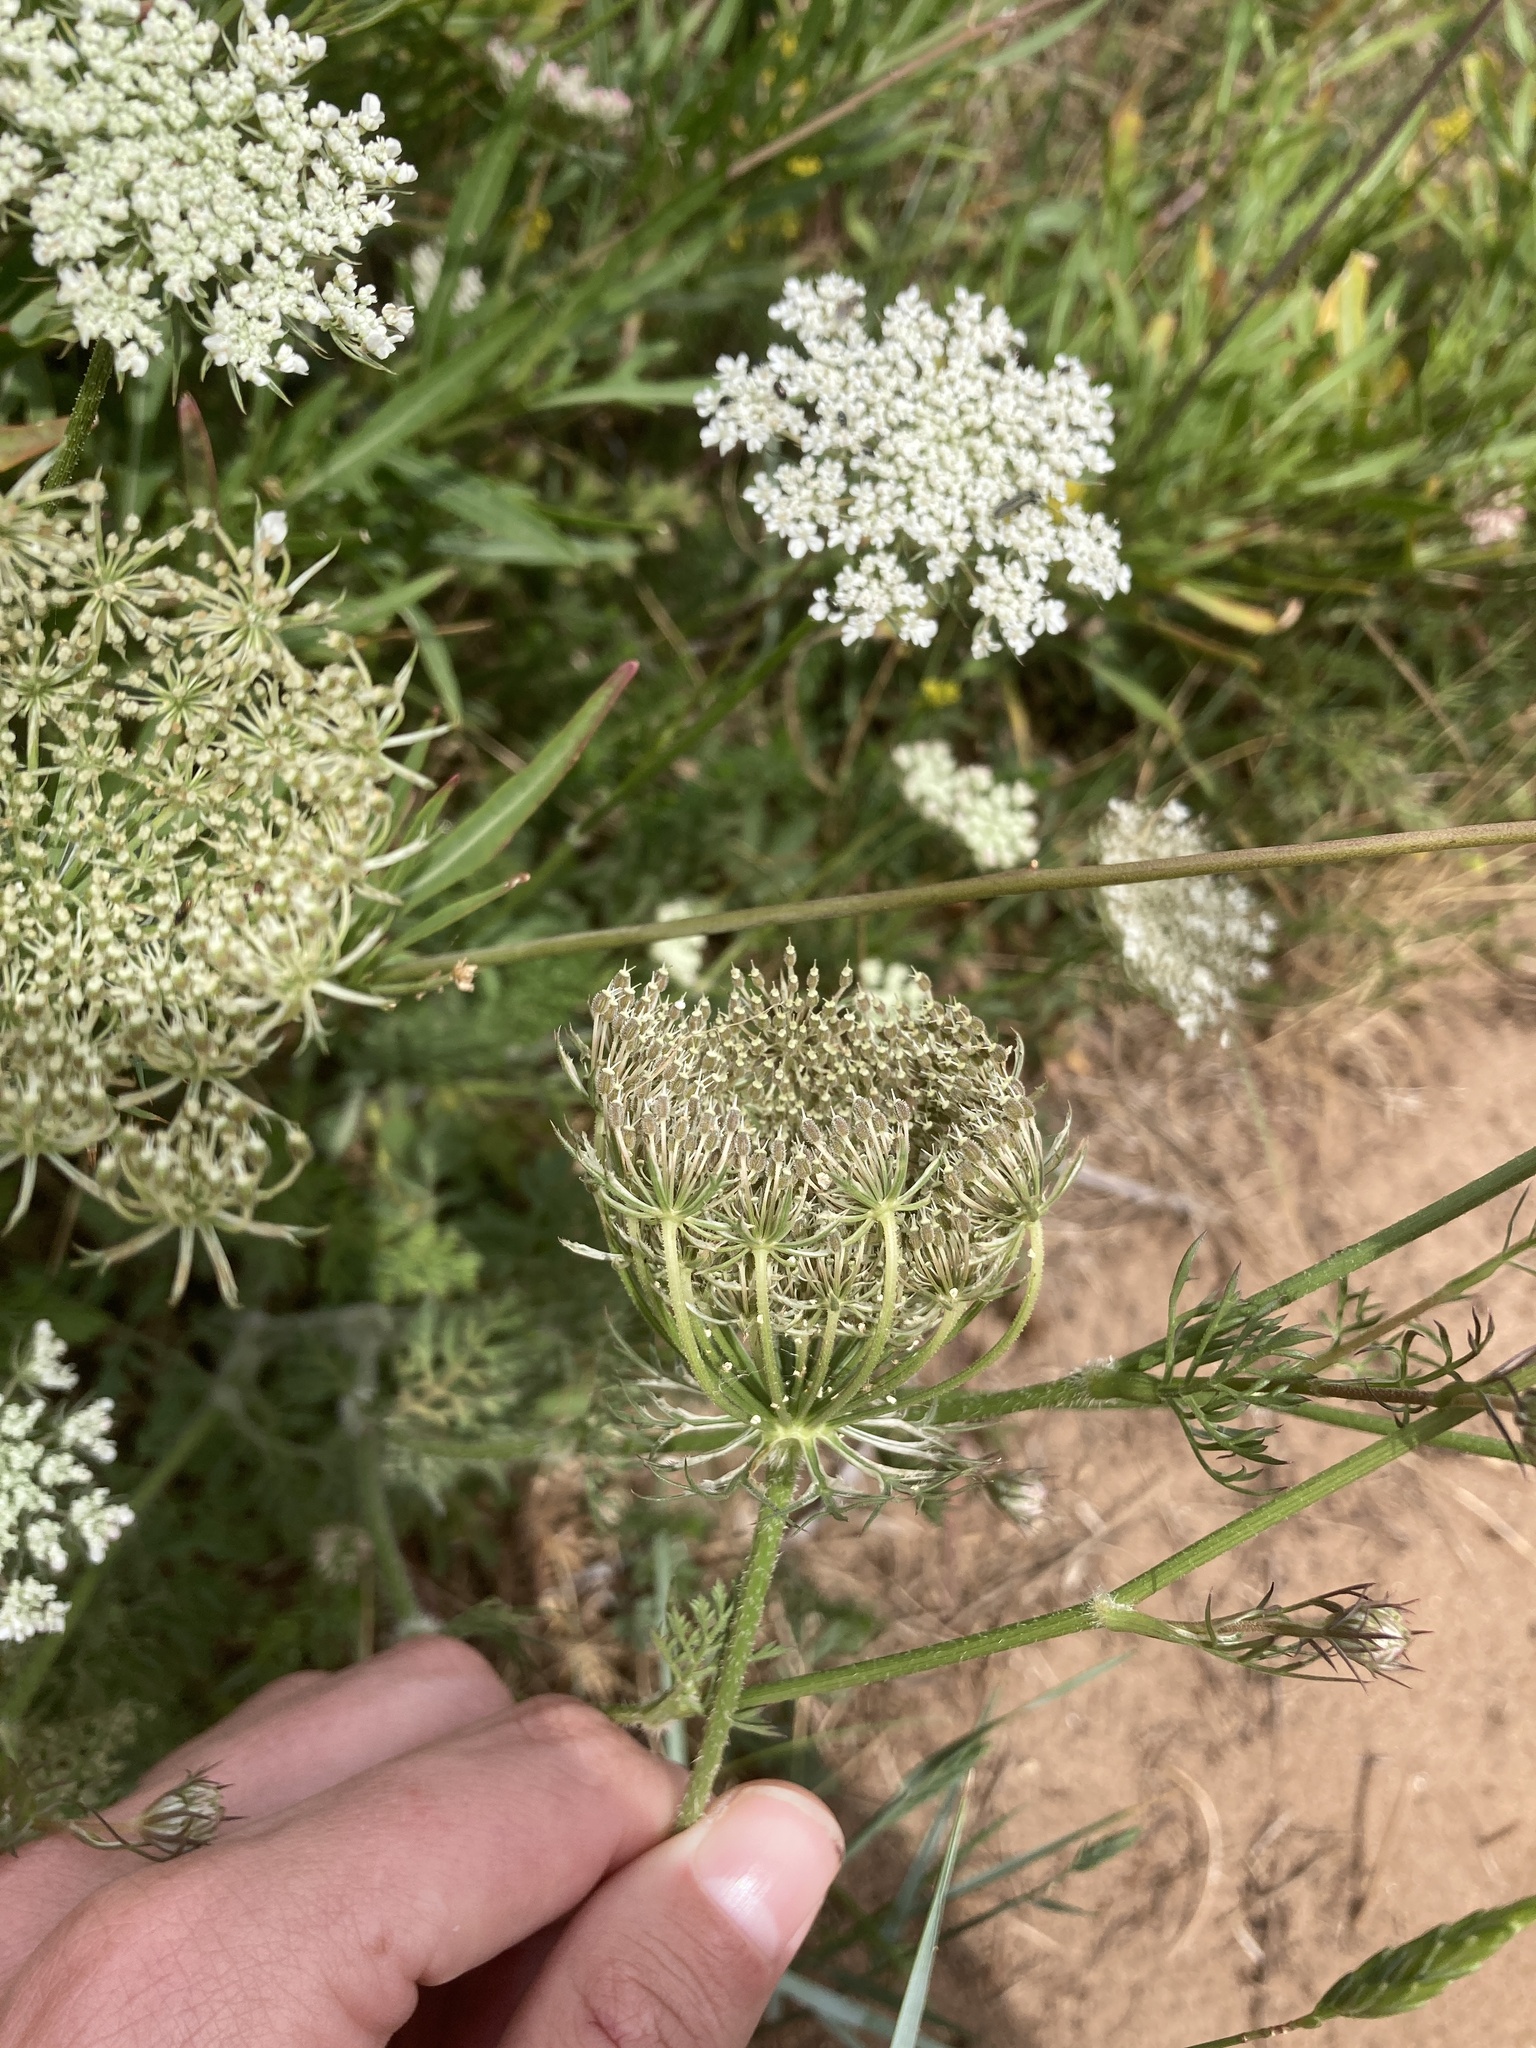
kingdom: Plantae
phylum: Tracheophyta
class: Magnoliopsida
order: Apiales
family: Apiaceae
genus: Daucus
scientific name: Daucus carota
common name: Wild carrot
